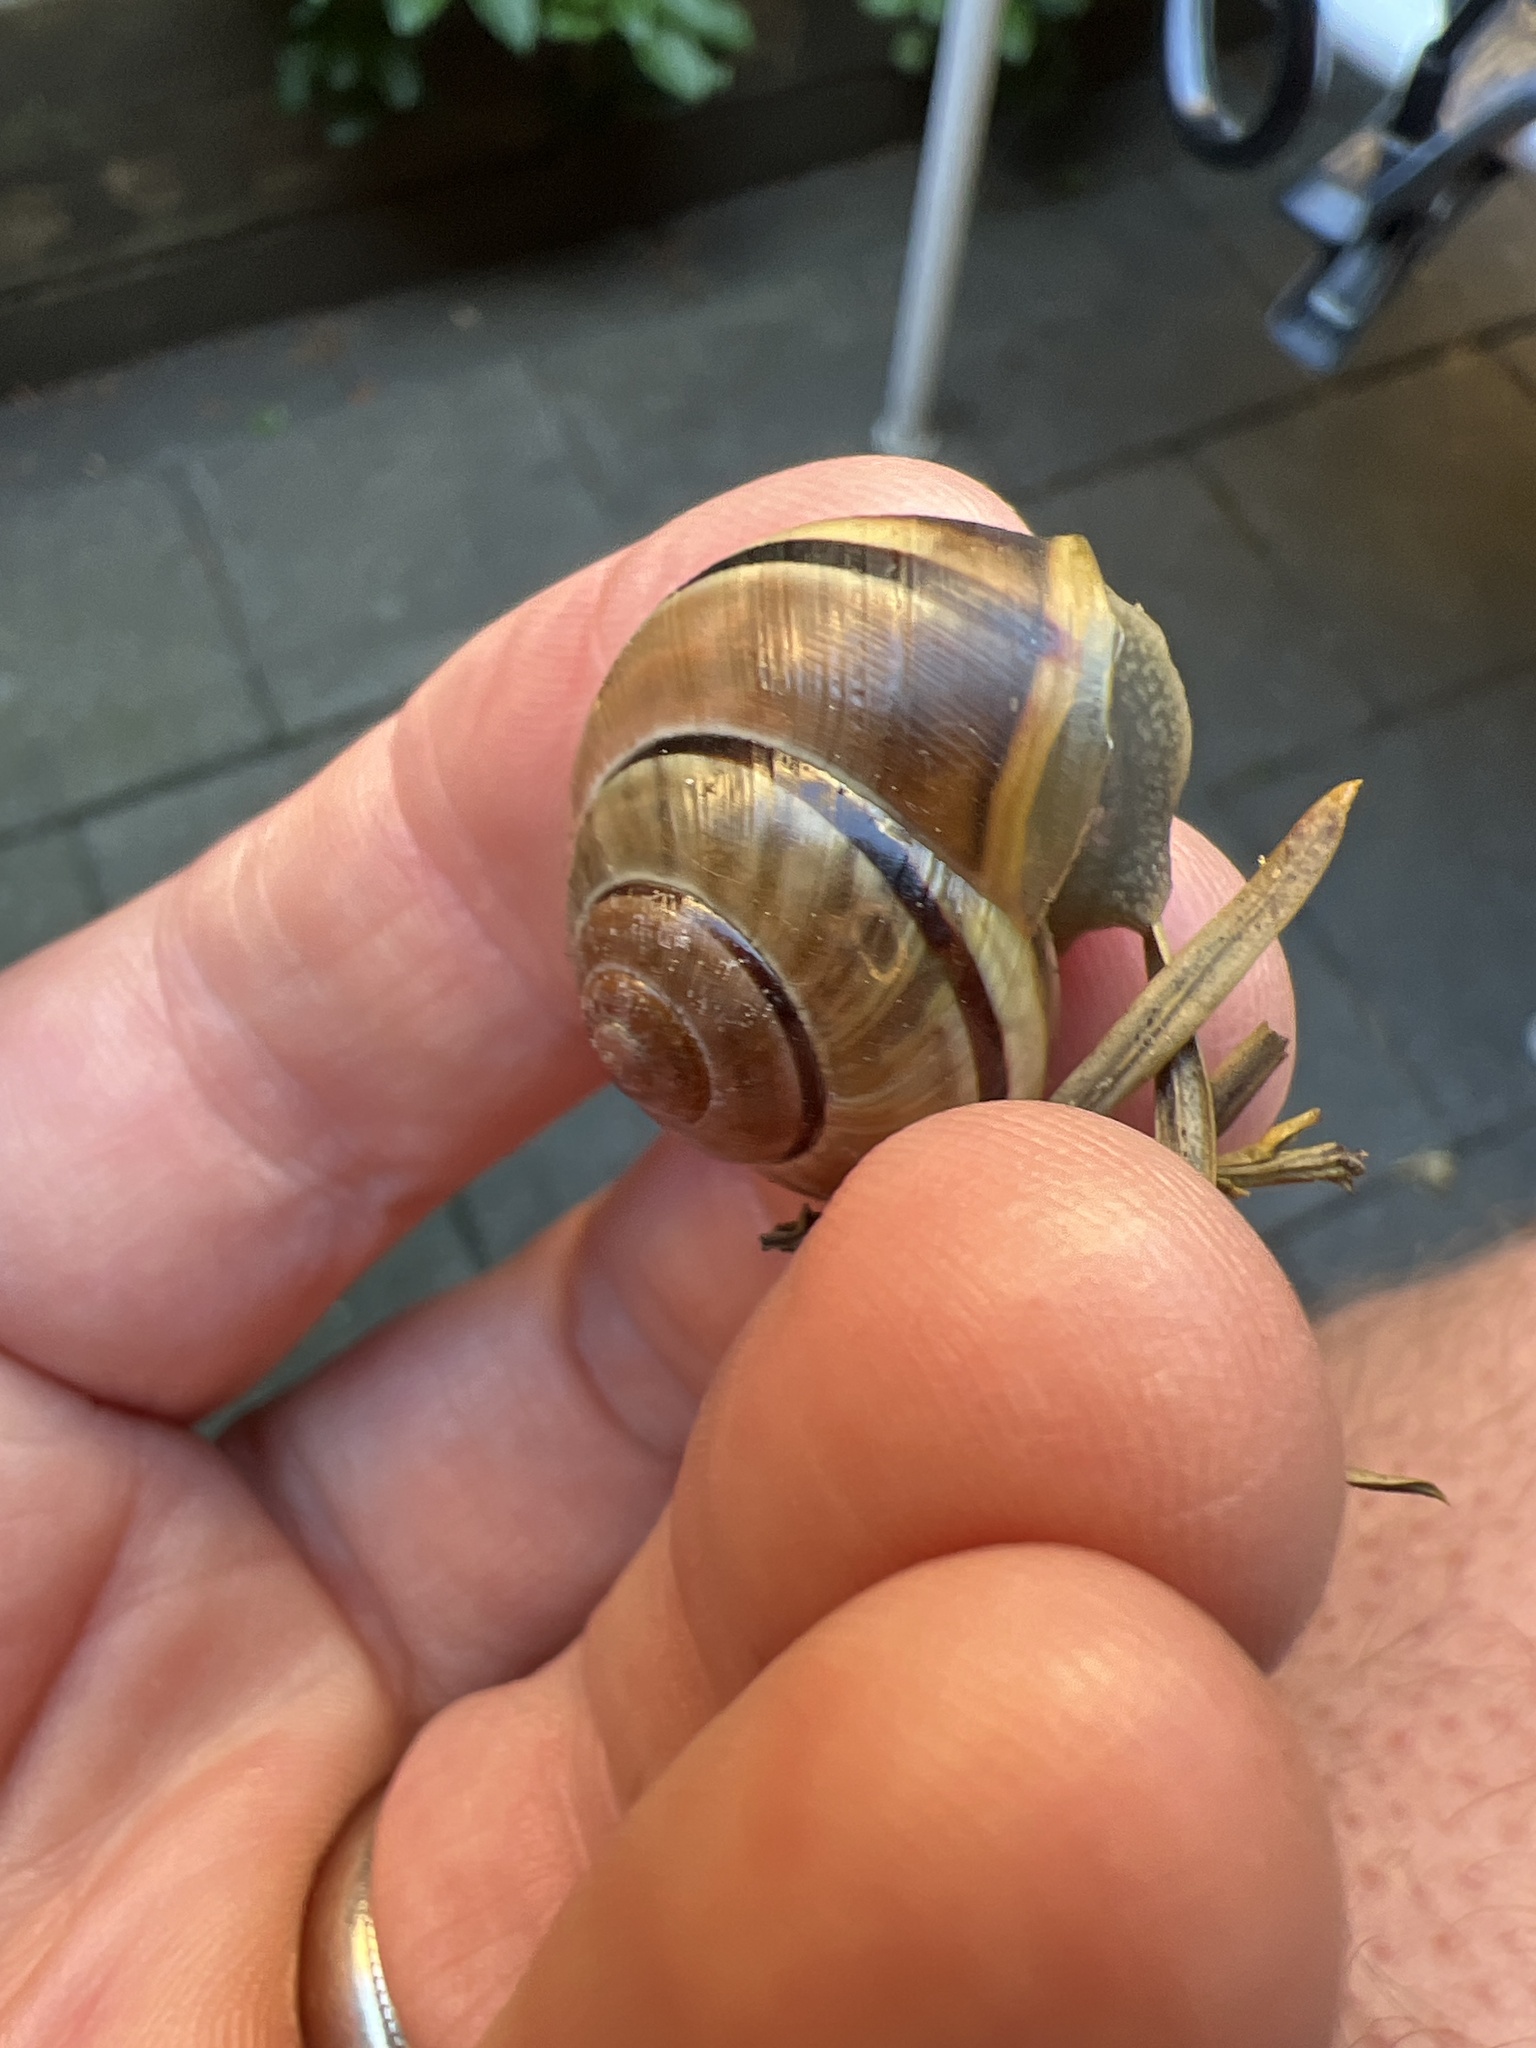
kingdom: Animalia
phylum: Mollusca
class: Gastropoda
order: Stylommatophora
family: Helicidae
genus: Cepaea
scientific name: Cepaea nemoralis
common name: Grovesnail
